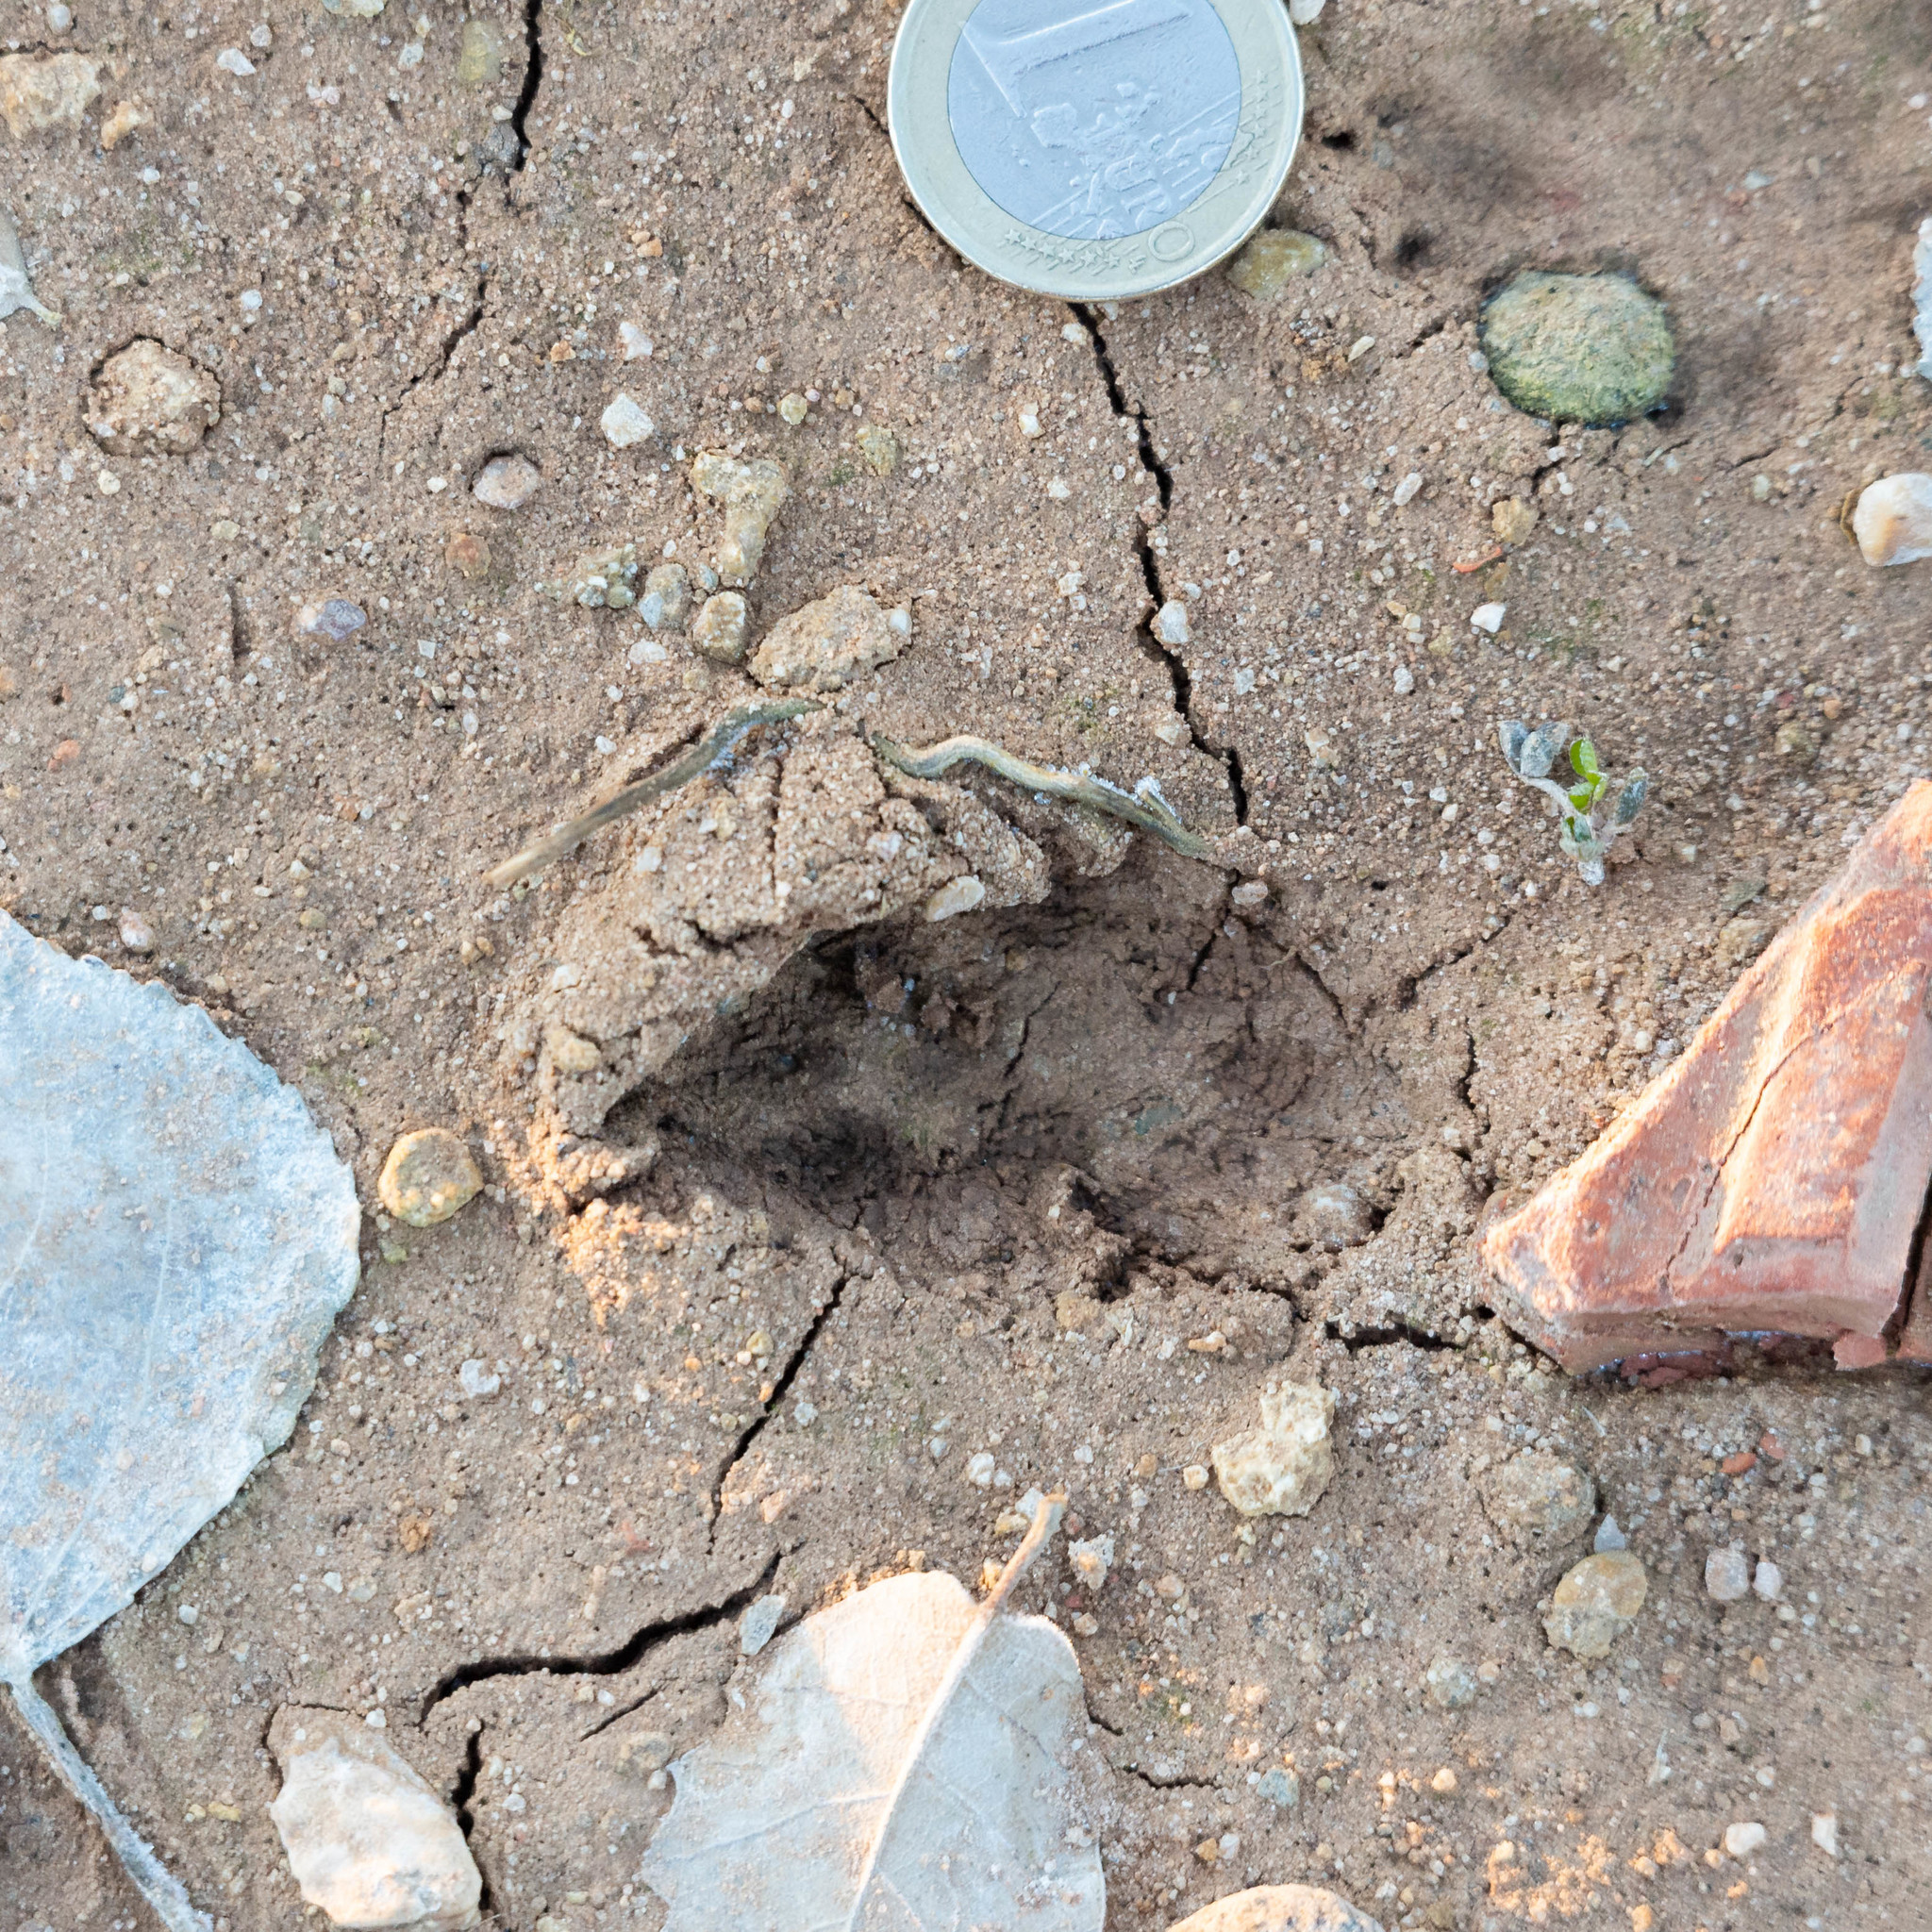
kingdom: Animalia
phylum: Chordata
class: Mammalia
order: Lagomorpha
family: Leporidae
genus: Oryctolagus
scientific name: Oryctolagus cuniculus
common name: European rabbit
